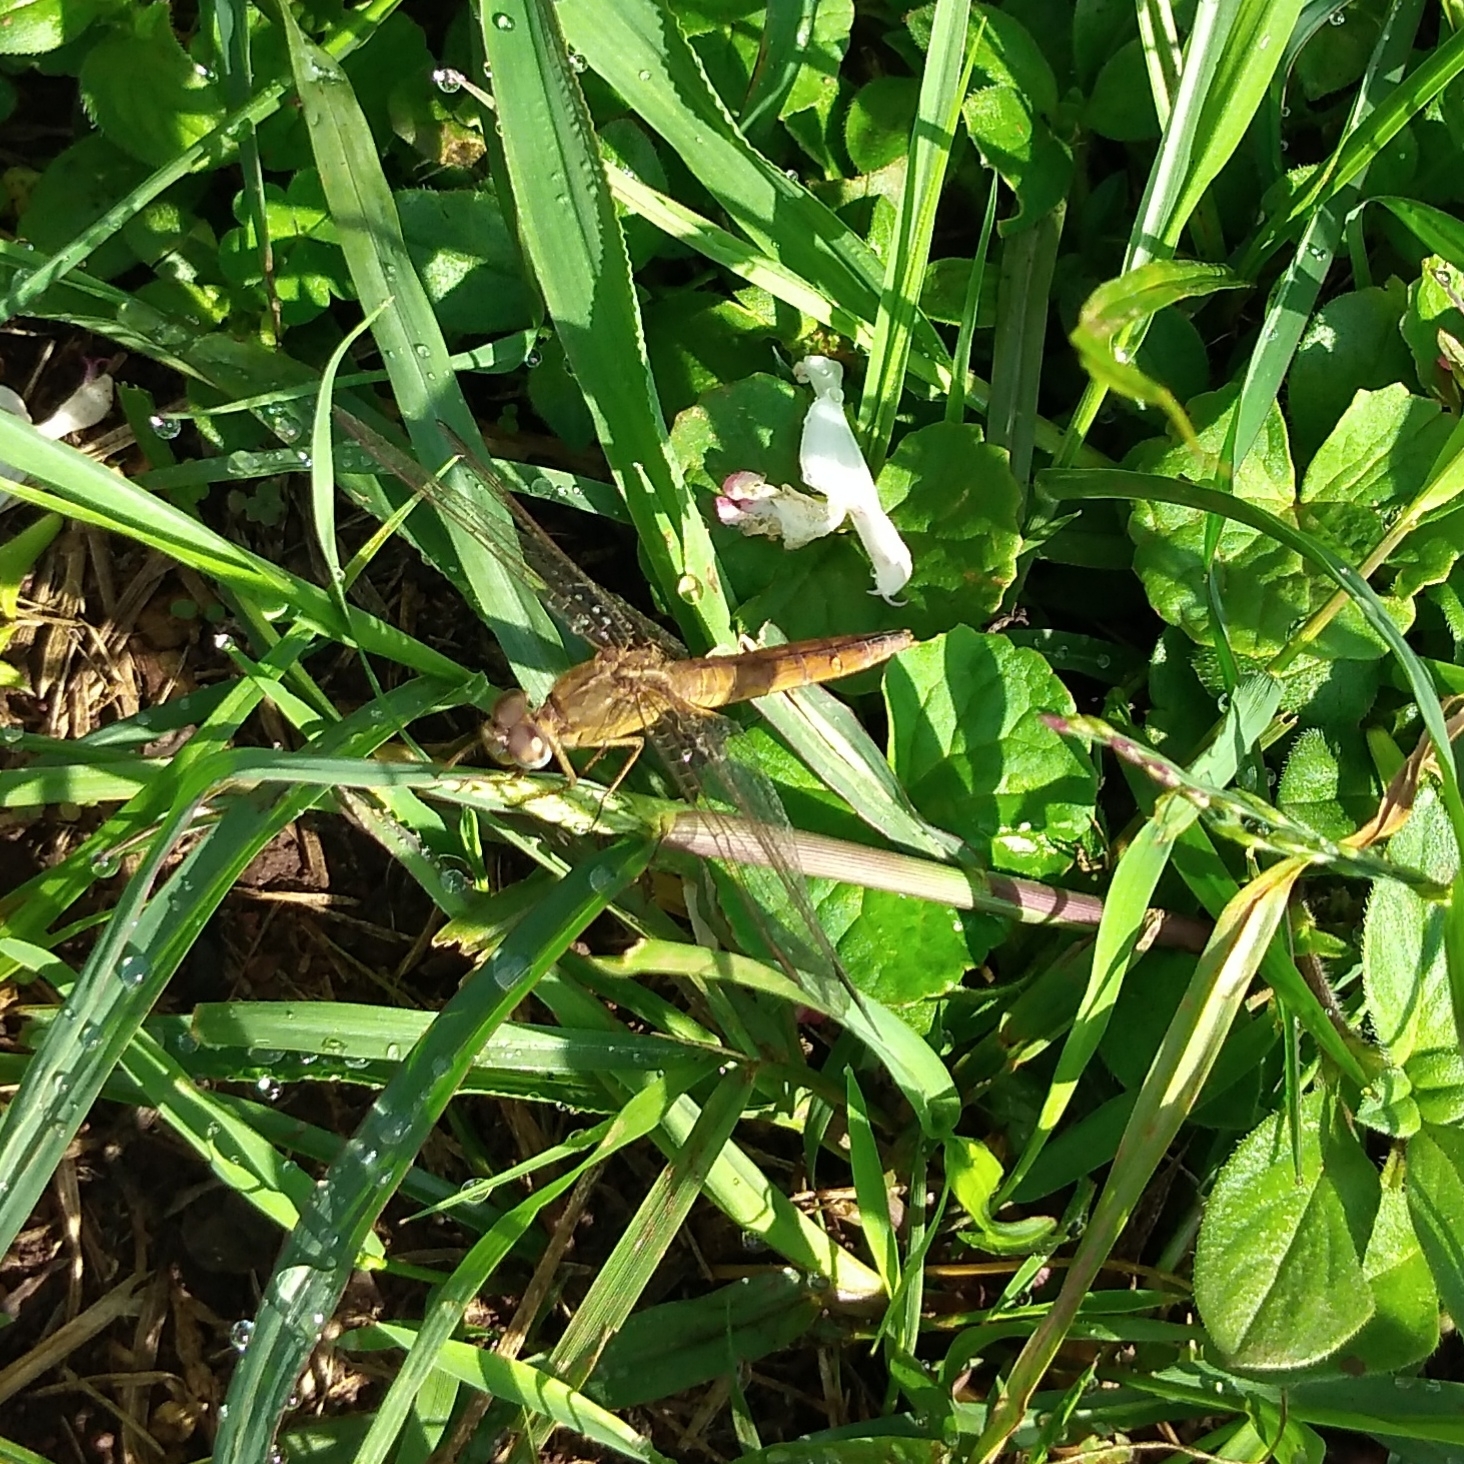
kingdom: Animalia
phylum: Arthropoda
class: Insecta
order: Odonata
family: Libellulidae
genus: Crocothemis
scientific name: Crocothemis erythraea
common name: Scarlet dragonfly
